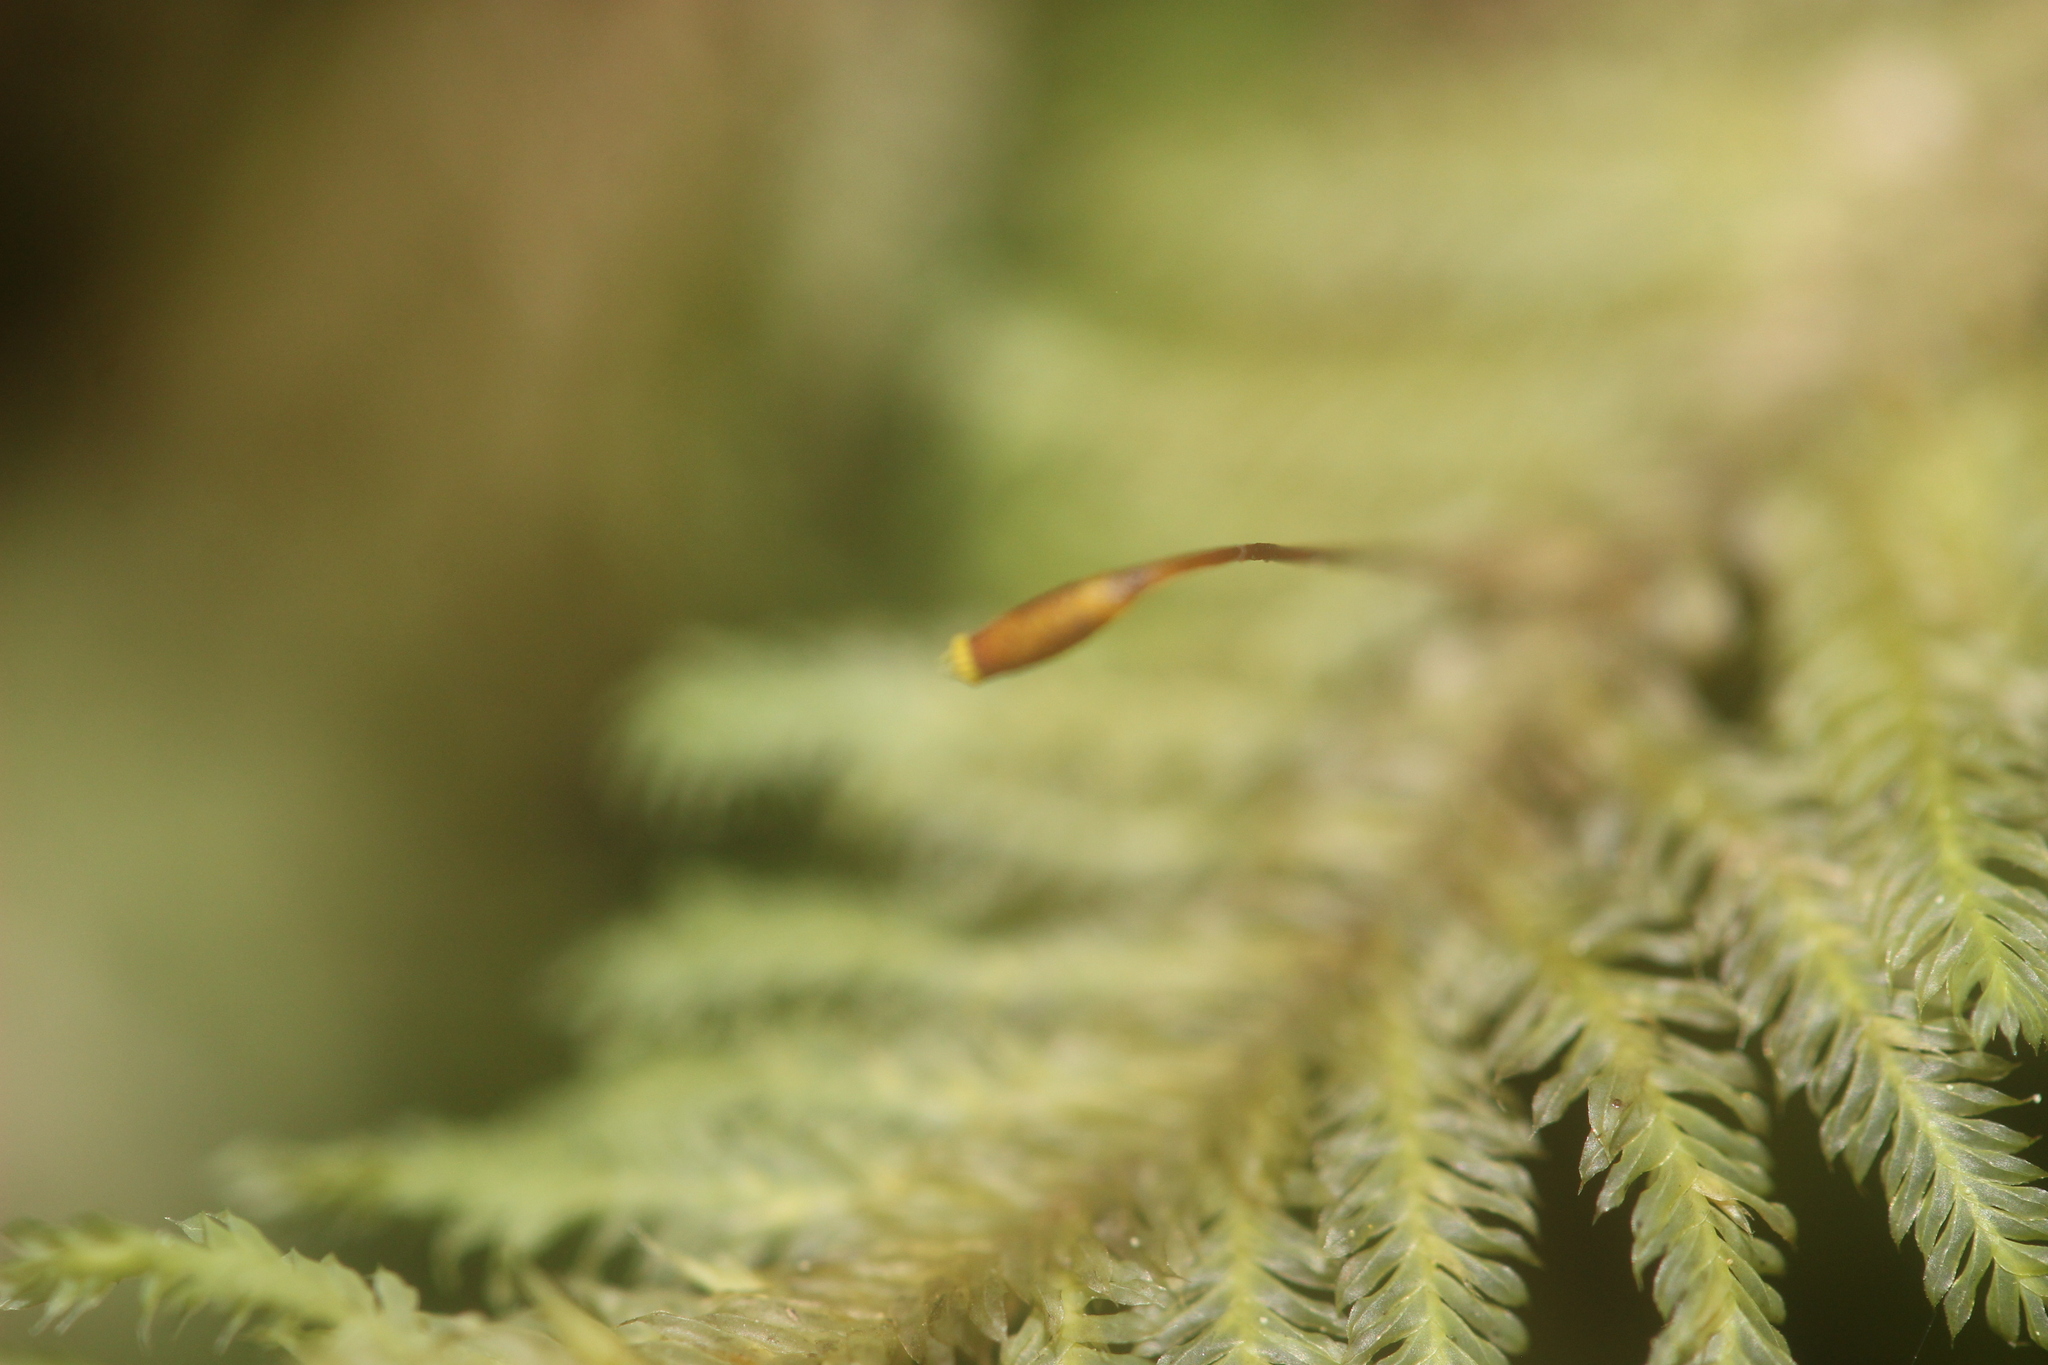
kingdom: Plantae
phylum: Bryophyta
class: Bryopsida
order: Hypopterygiales
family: Hypopterygiaceae
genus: Lopidium
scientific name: Lopidium concinnum
